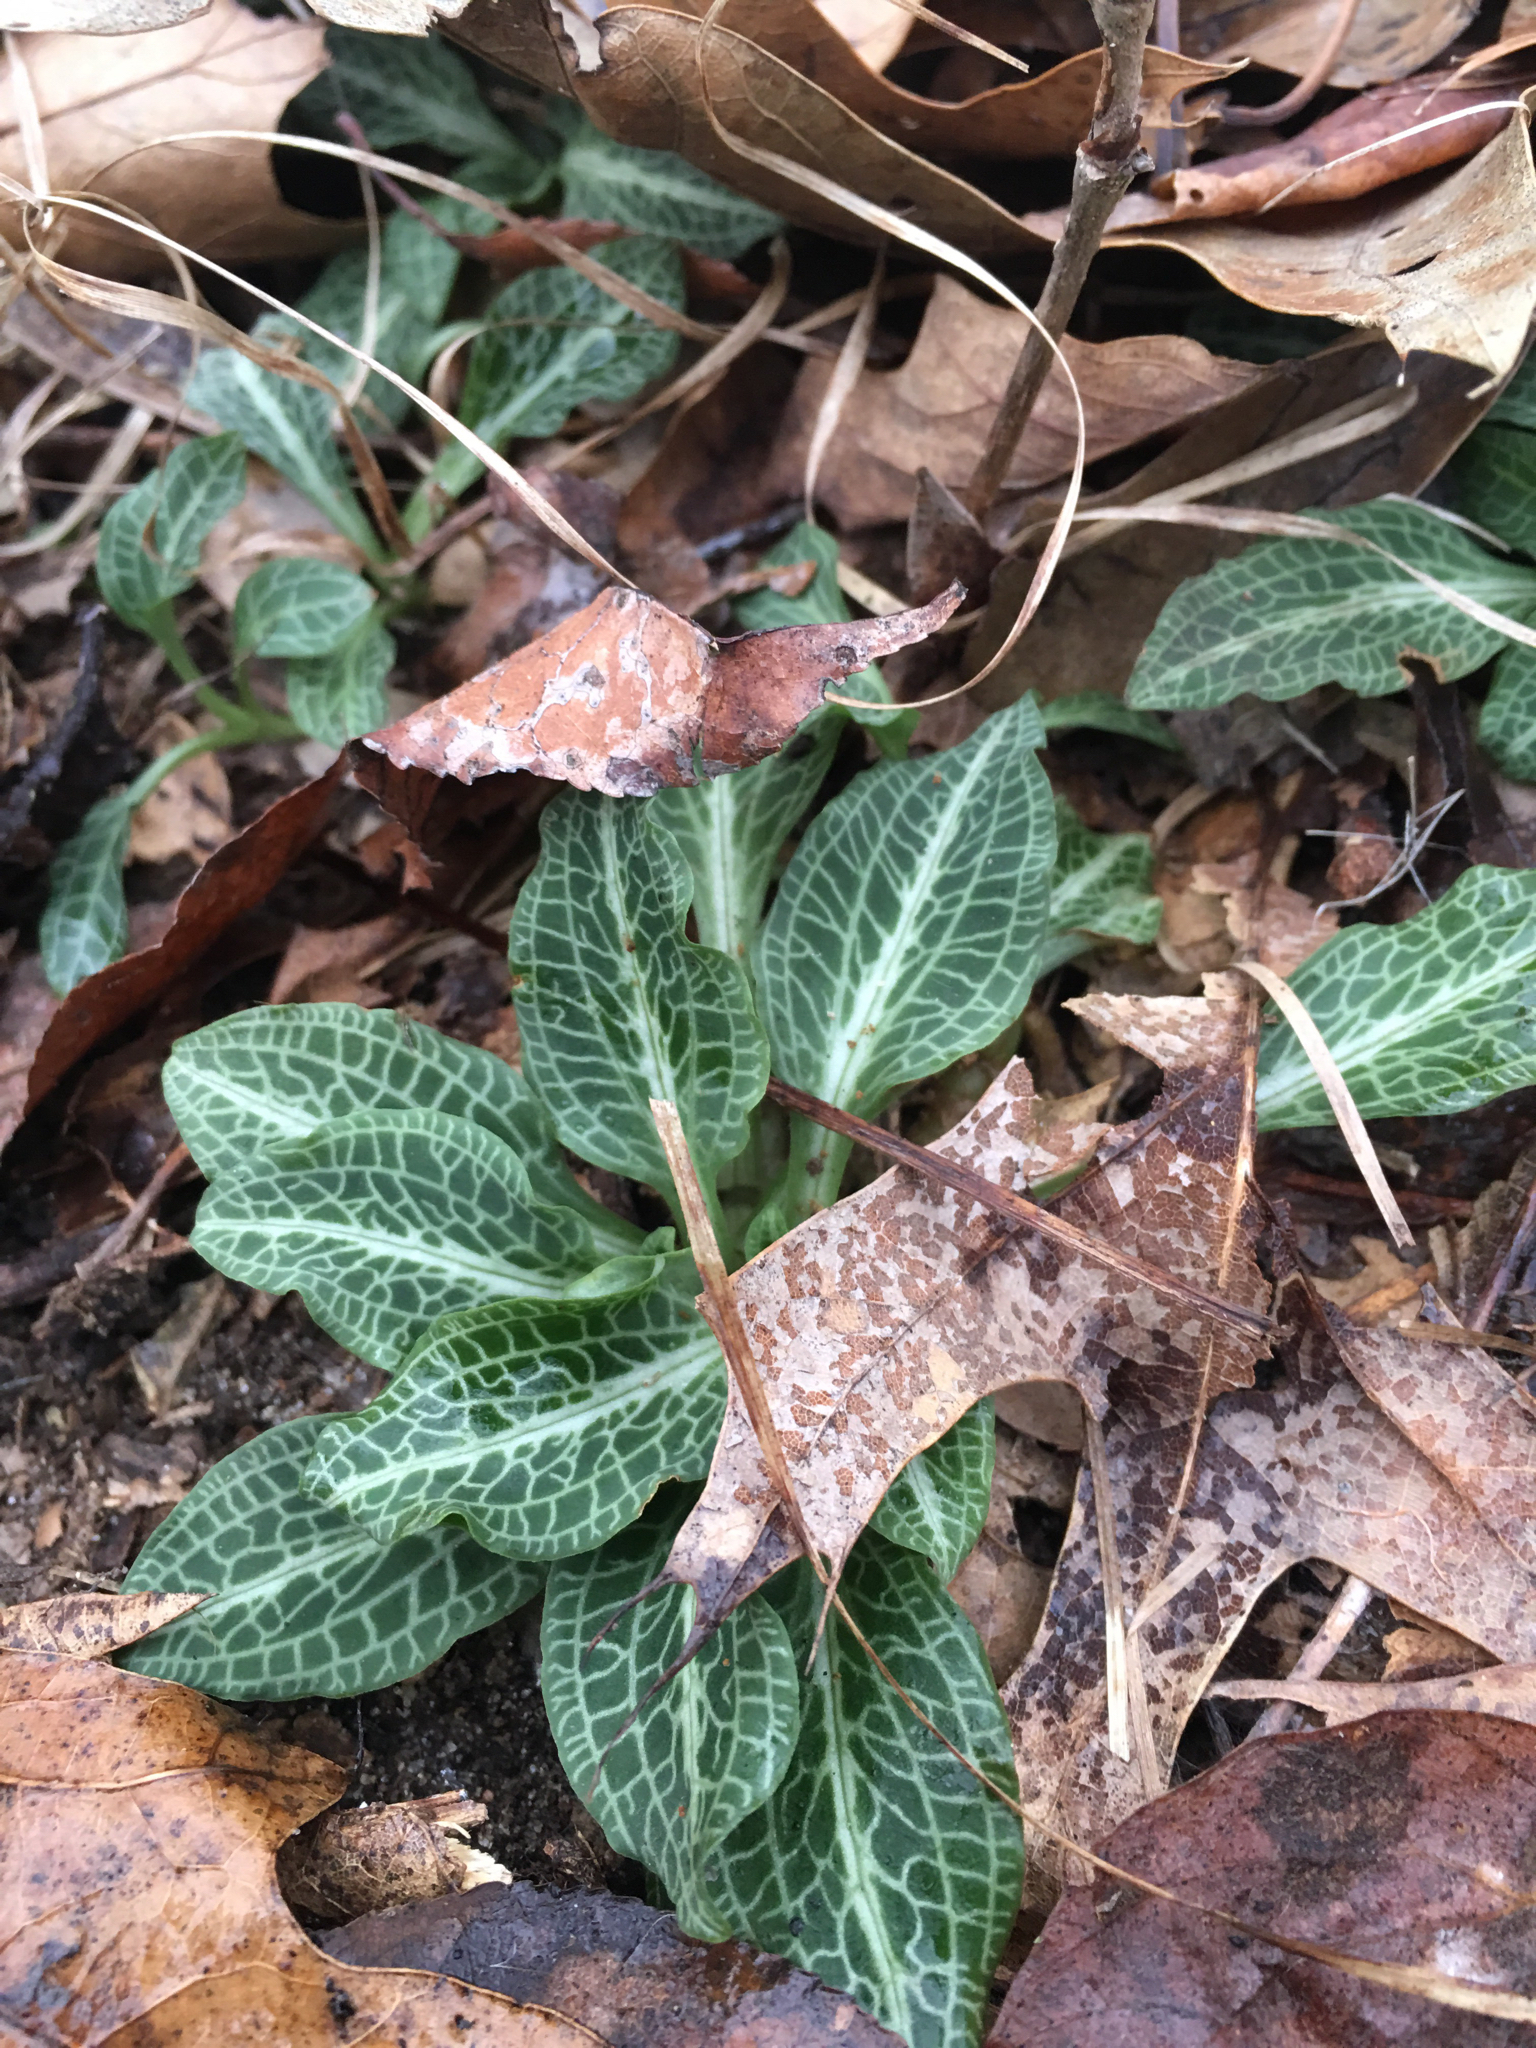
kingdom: Plantae
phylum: Tracheophyta
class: Liliopsida
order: Asparagales
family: Orchidaceae
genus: Goodyera
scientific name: Goodyera pubescens
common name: Downy rattlesnake-plantain
